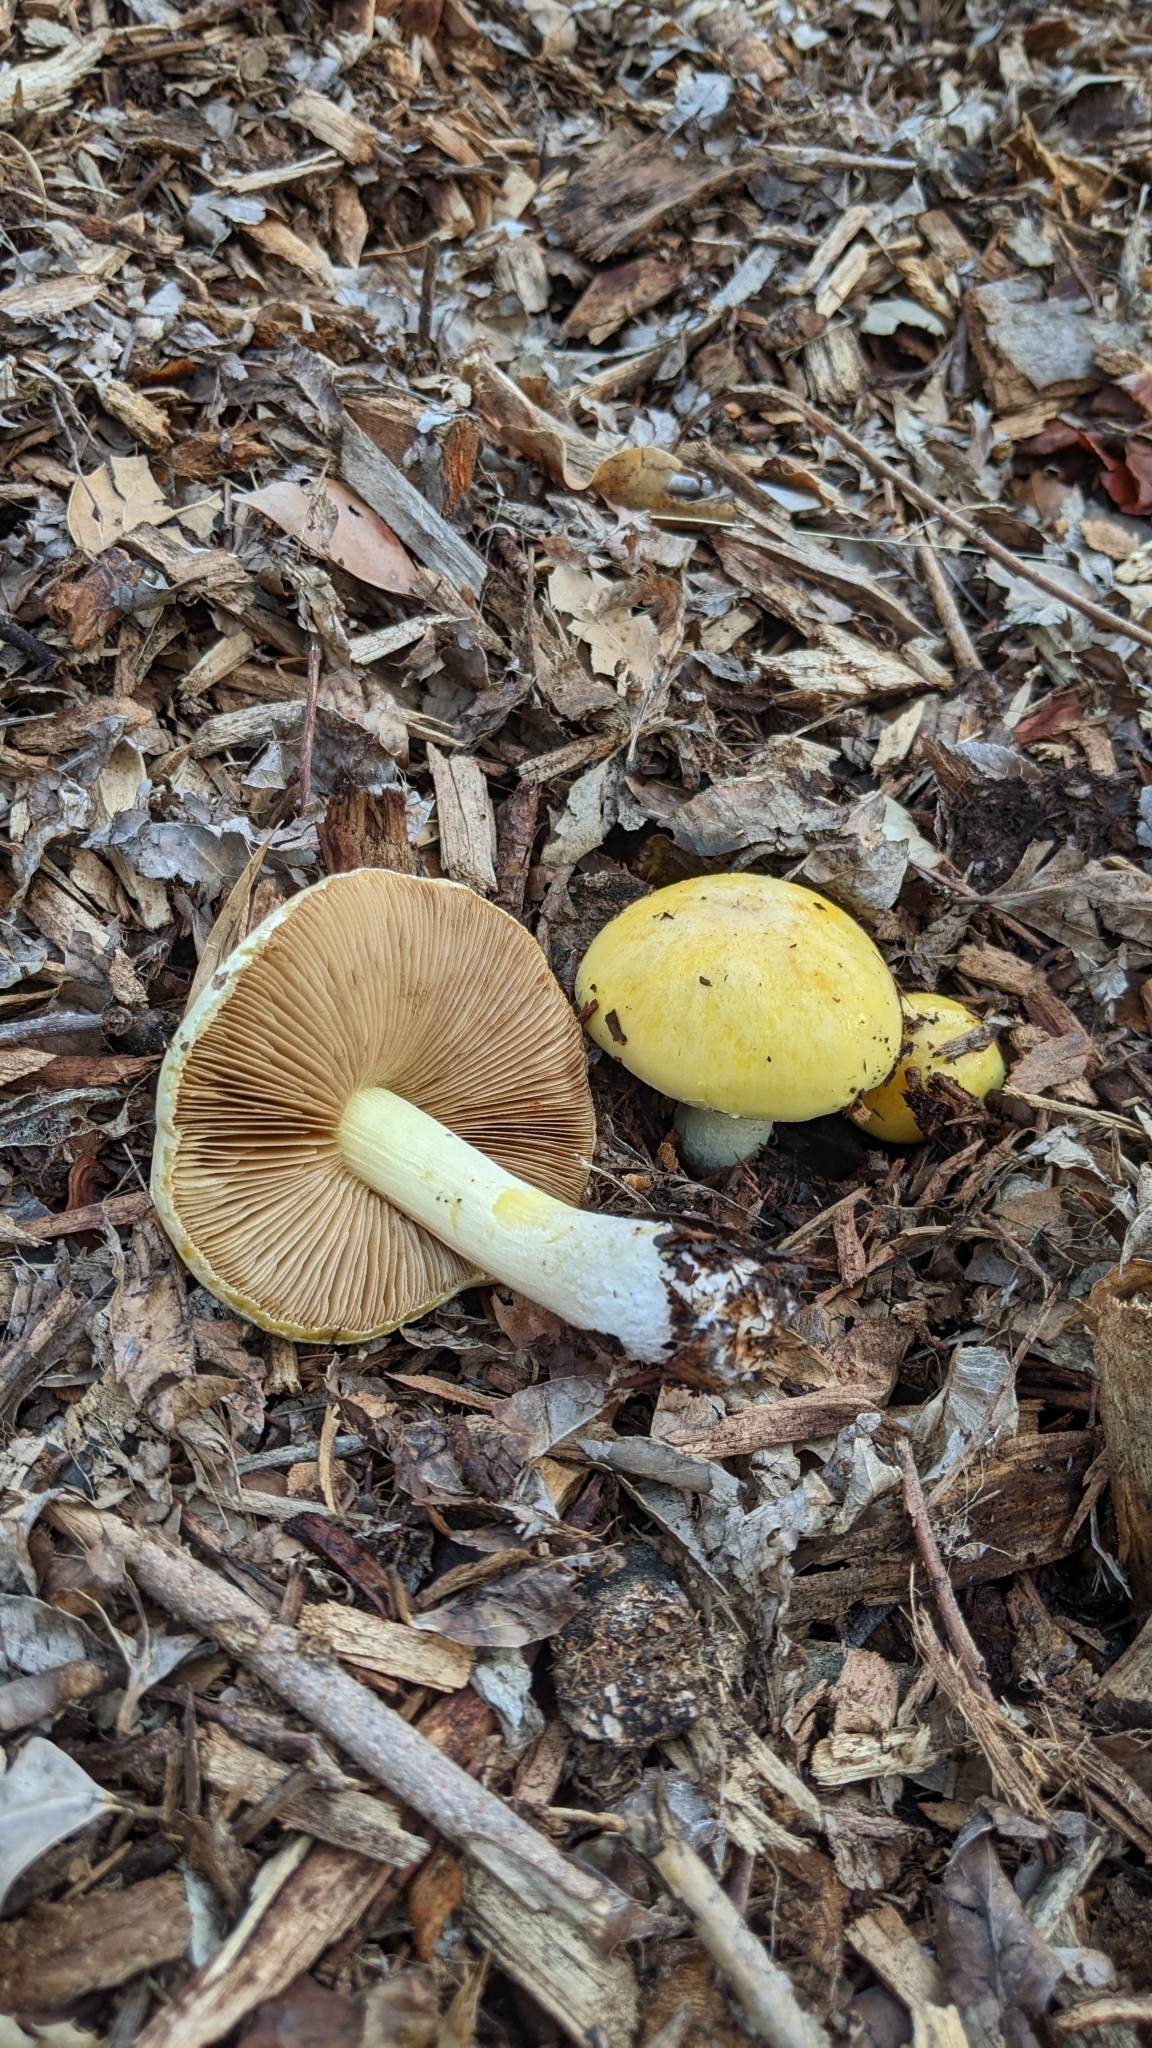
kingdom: Fungi
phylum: Basidiomycota
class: Agaricomycetes
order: Agaricales
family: Bolbitiaceae
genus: Bolbitius
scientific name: Bolbitius titubans
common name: Yellow fieldcap
